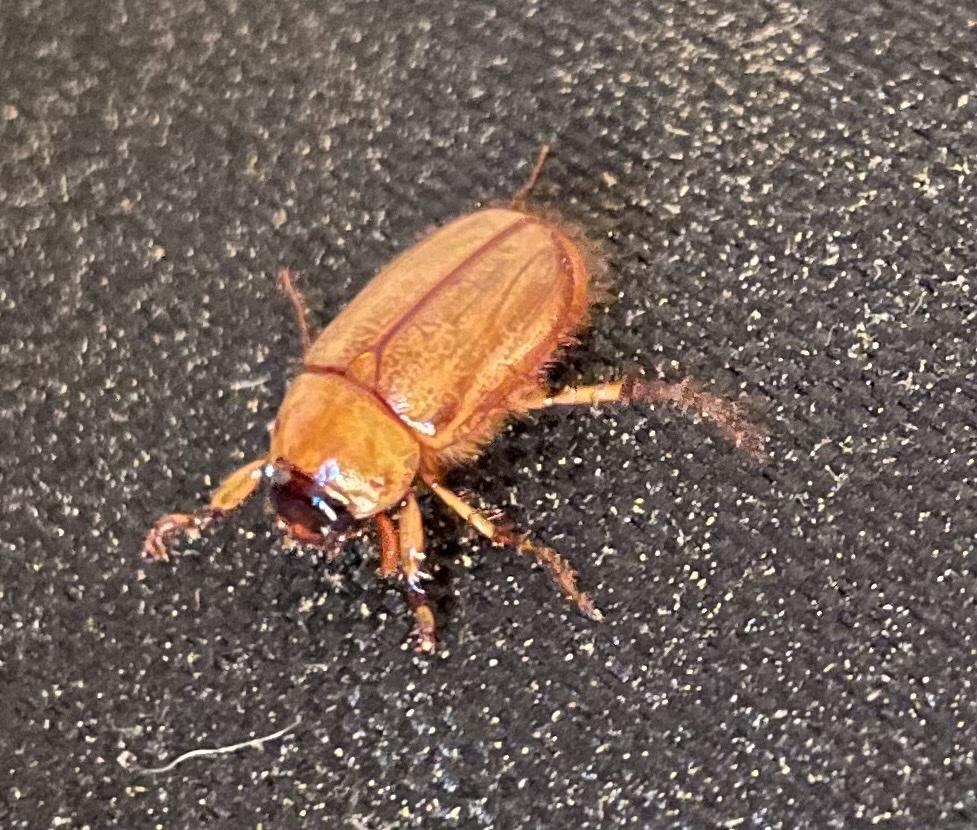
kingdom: Animalia
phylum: Arthropoda
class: Insecta
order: Coleoptera
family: Scarabaeidae
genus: Cyclocephala
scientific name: Cyclocephala lurida
